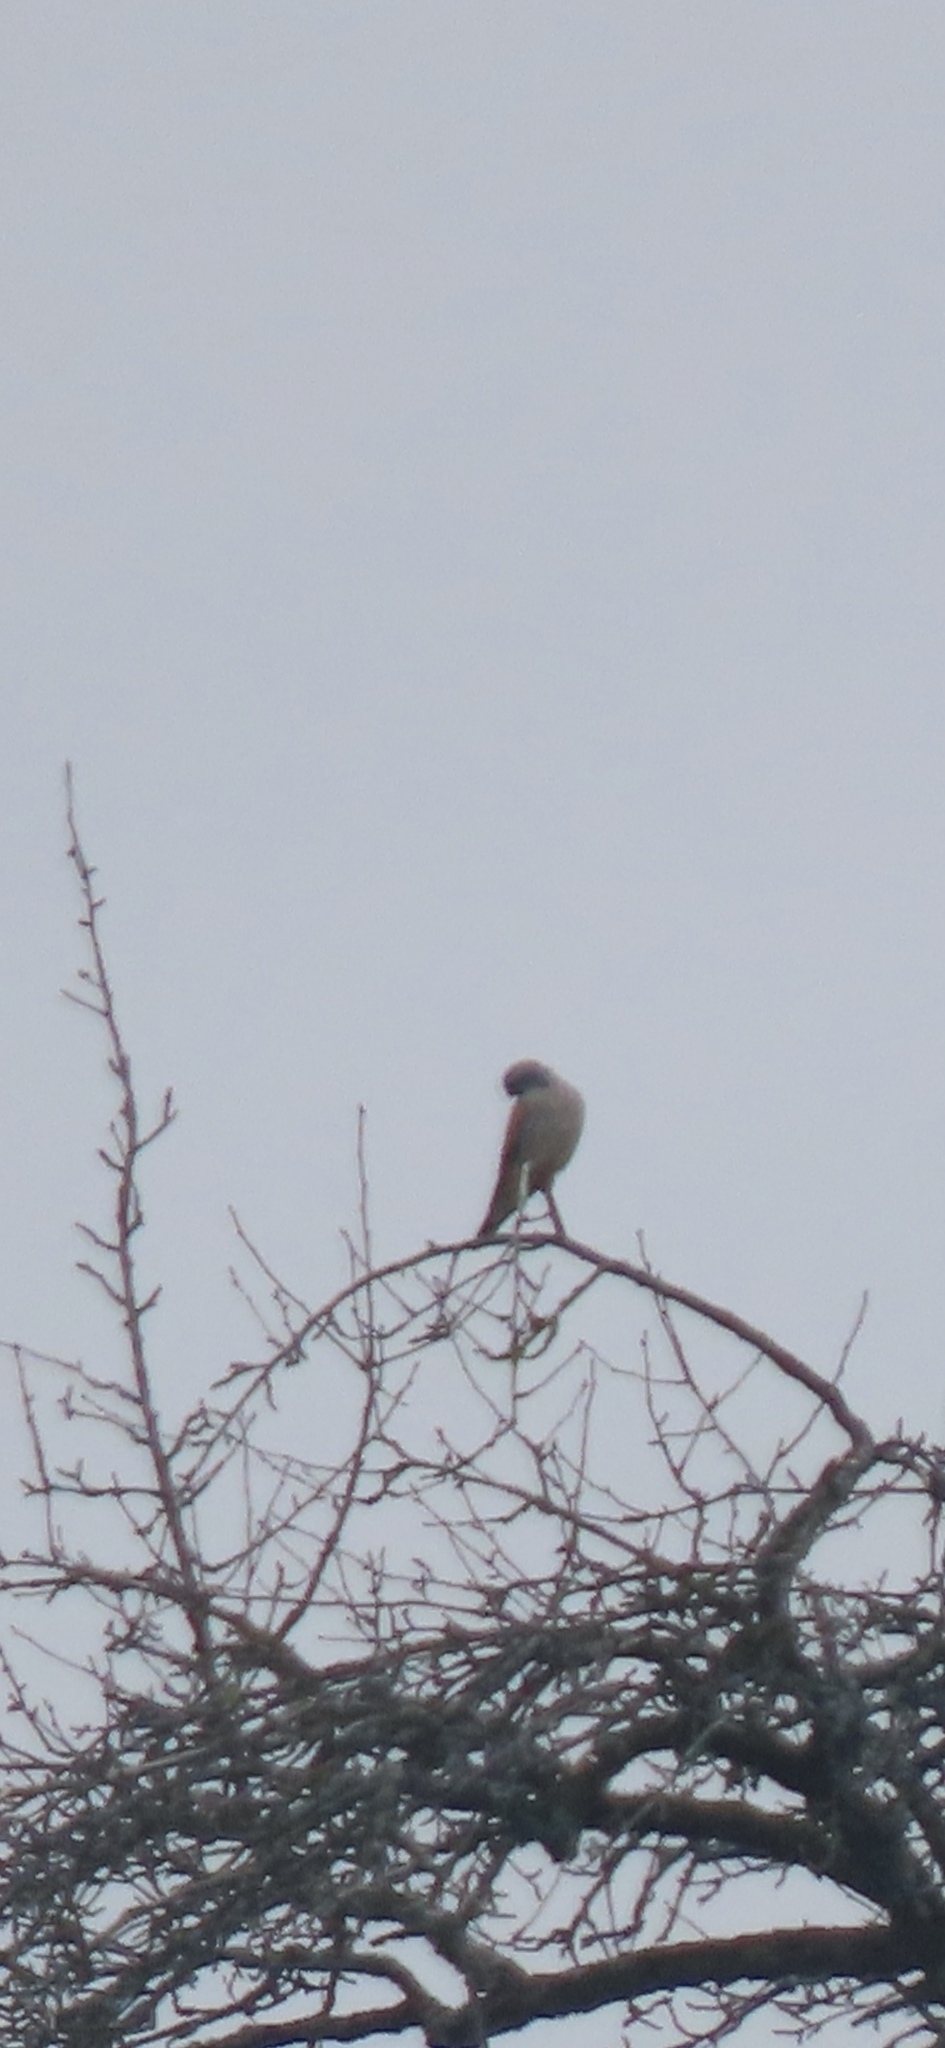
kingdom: Animalia
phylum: Chordata
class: Aves
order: Falconiformes
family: Falconidae
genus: Falco
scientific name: Falco tinnunculus
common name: Common kestrel
